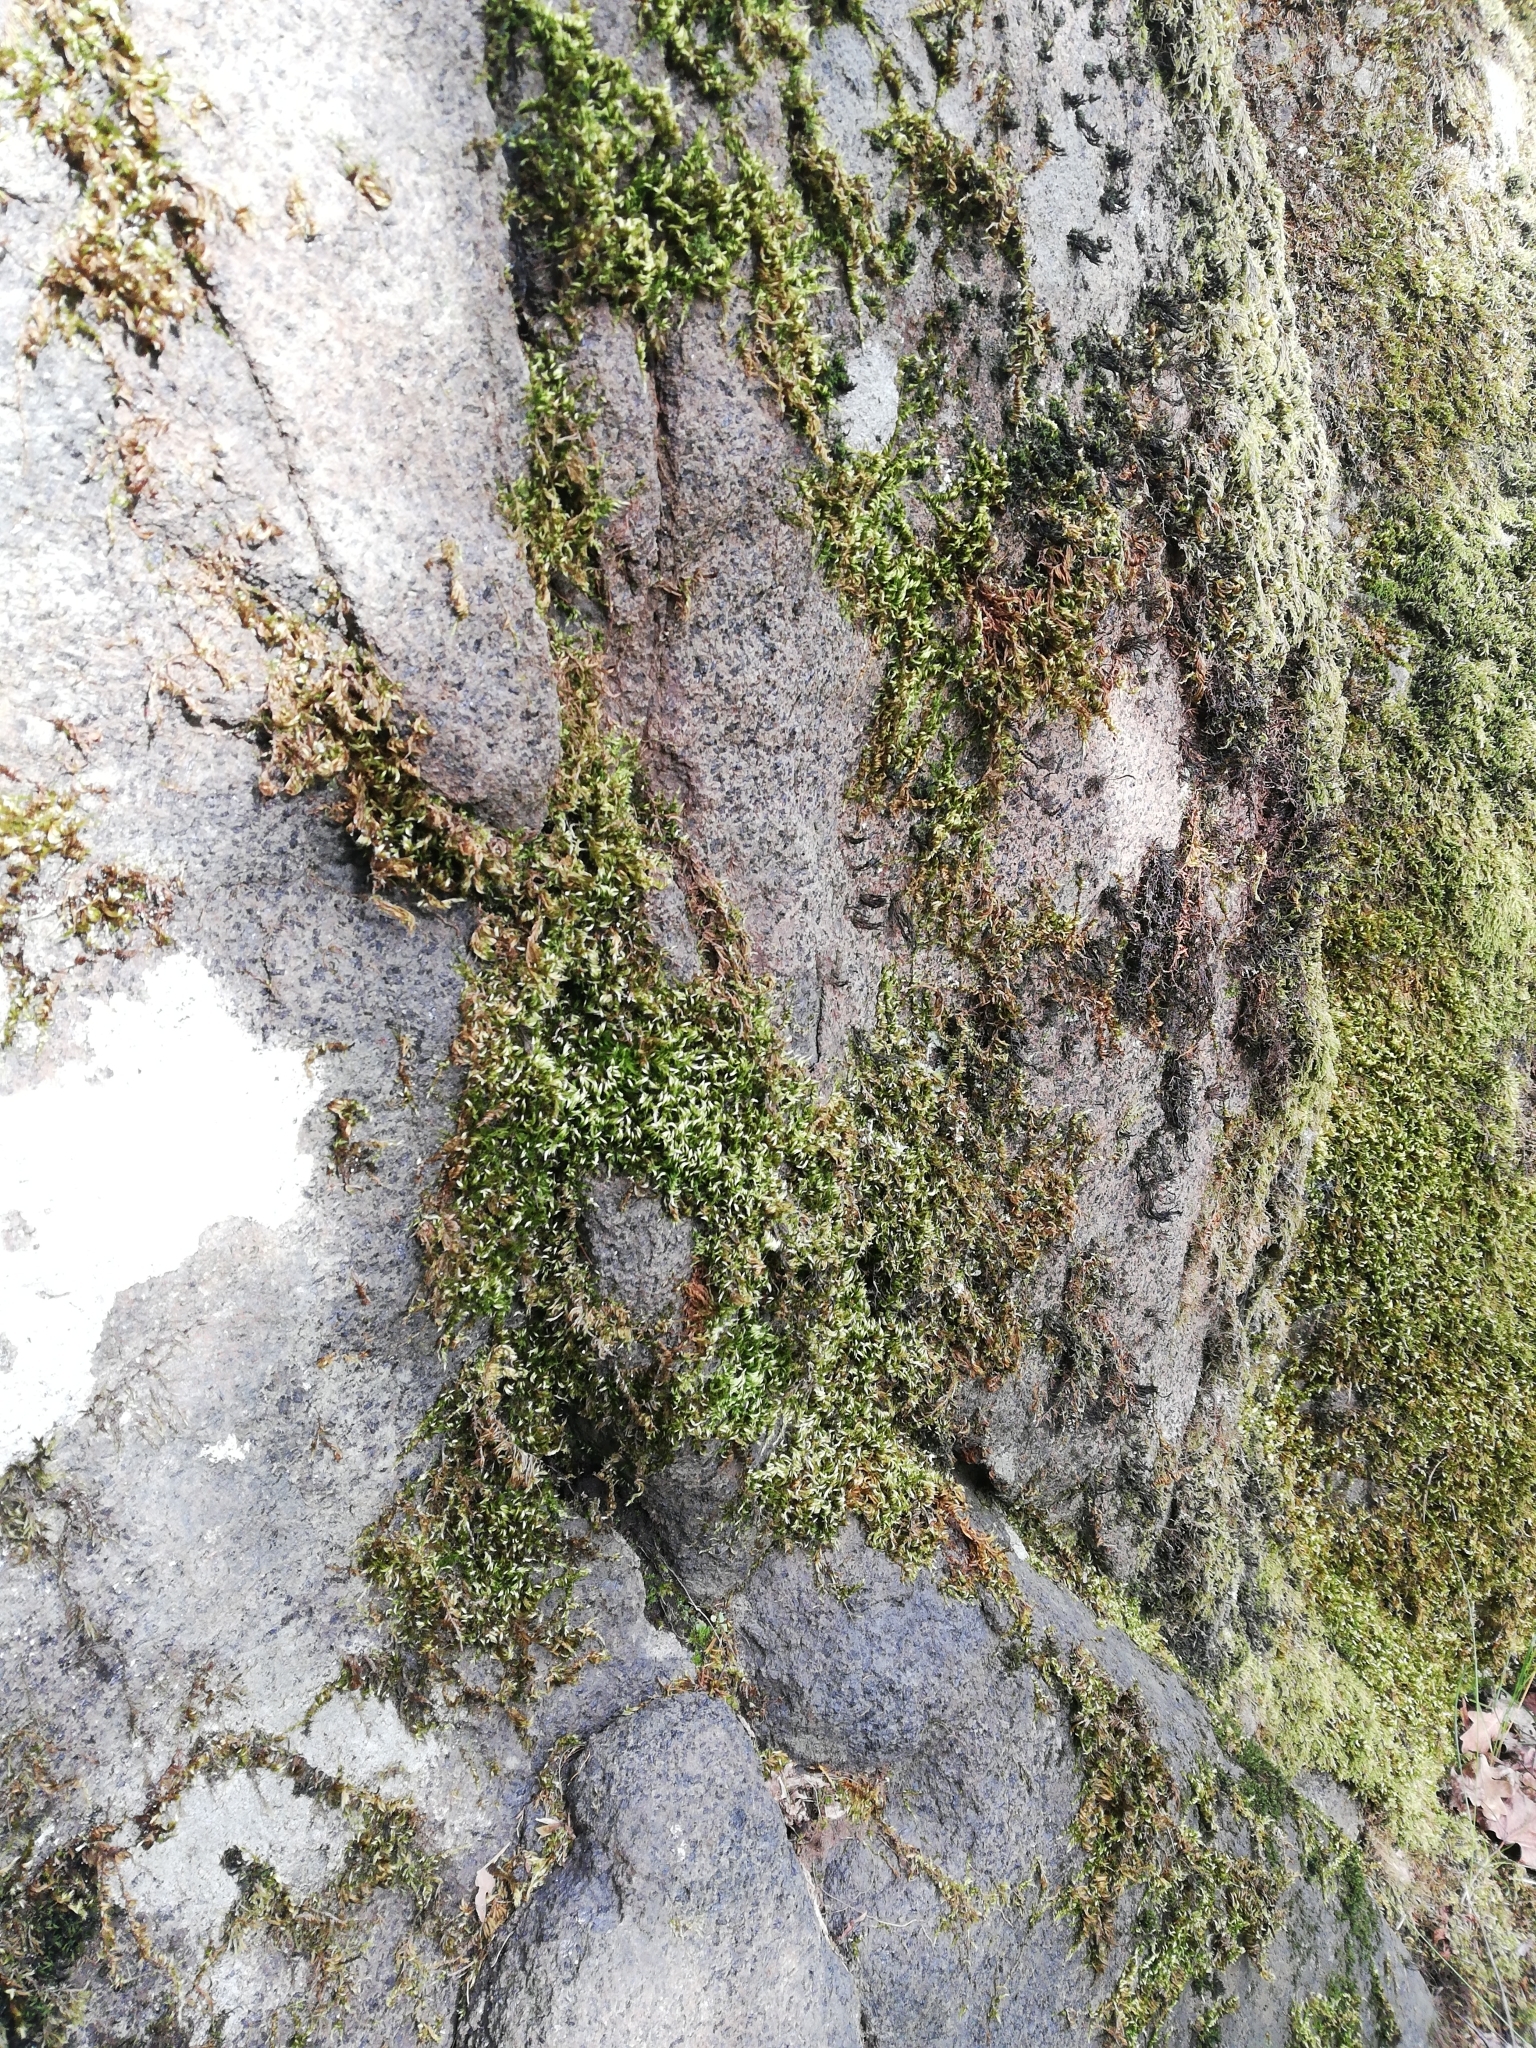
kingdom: Plantae
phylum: Bryophyta
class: Bryopsida
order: Hypnales
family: Brachytheciaceae
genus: Homalothecium
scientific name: Homalothecium sericeum
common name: Silky wall feather-moss
